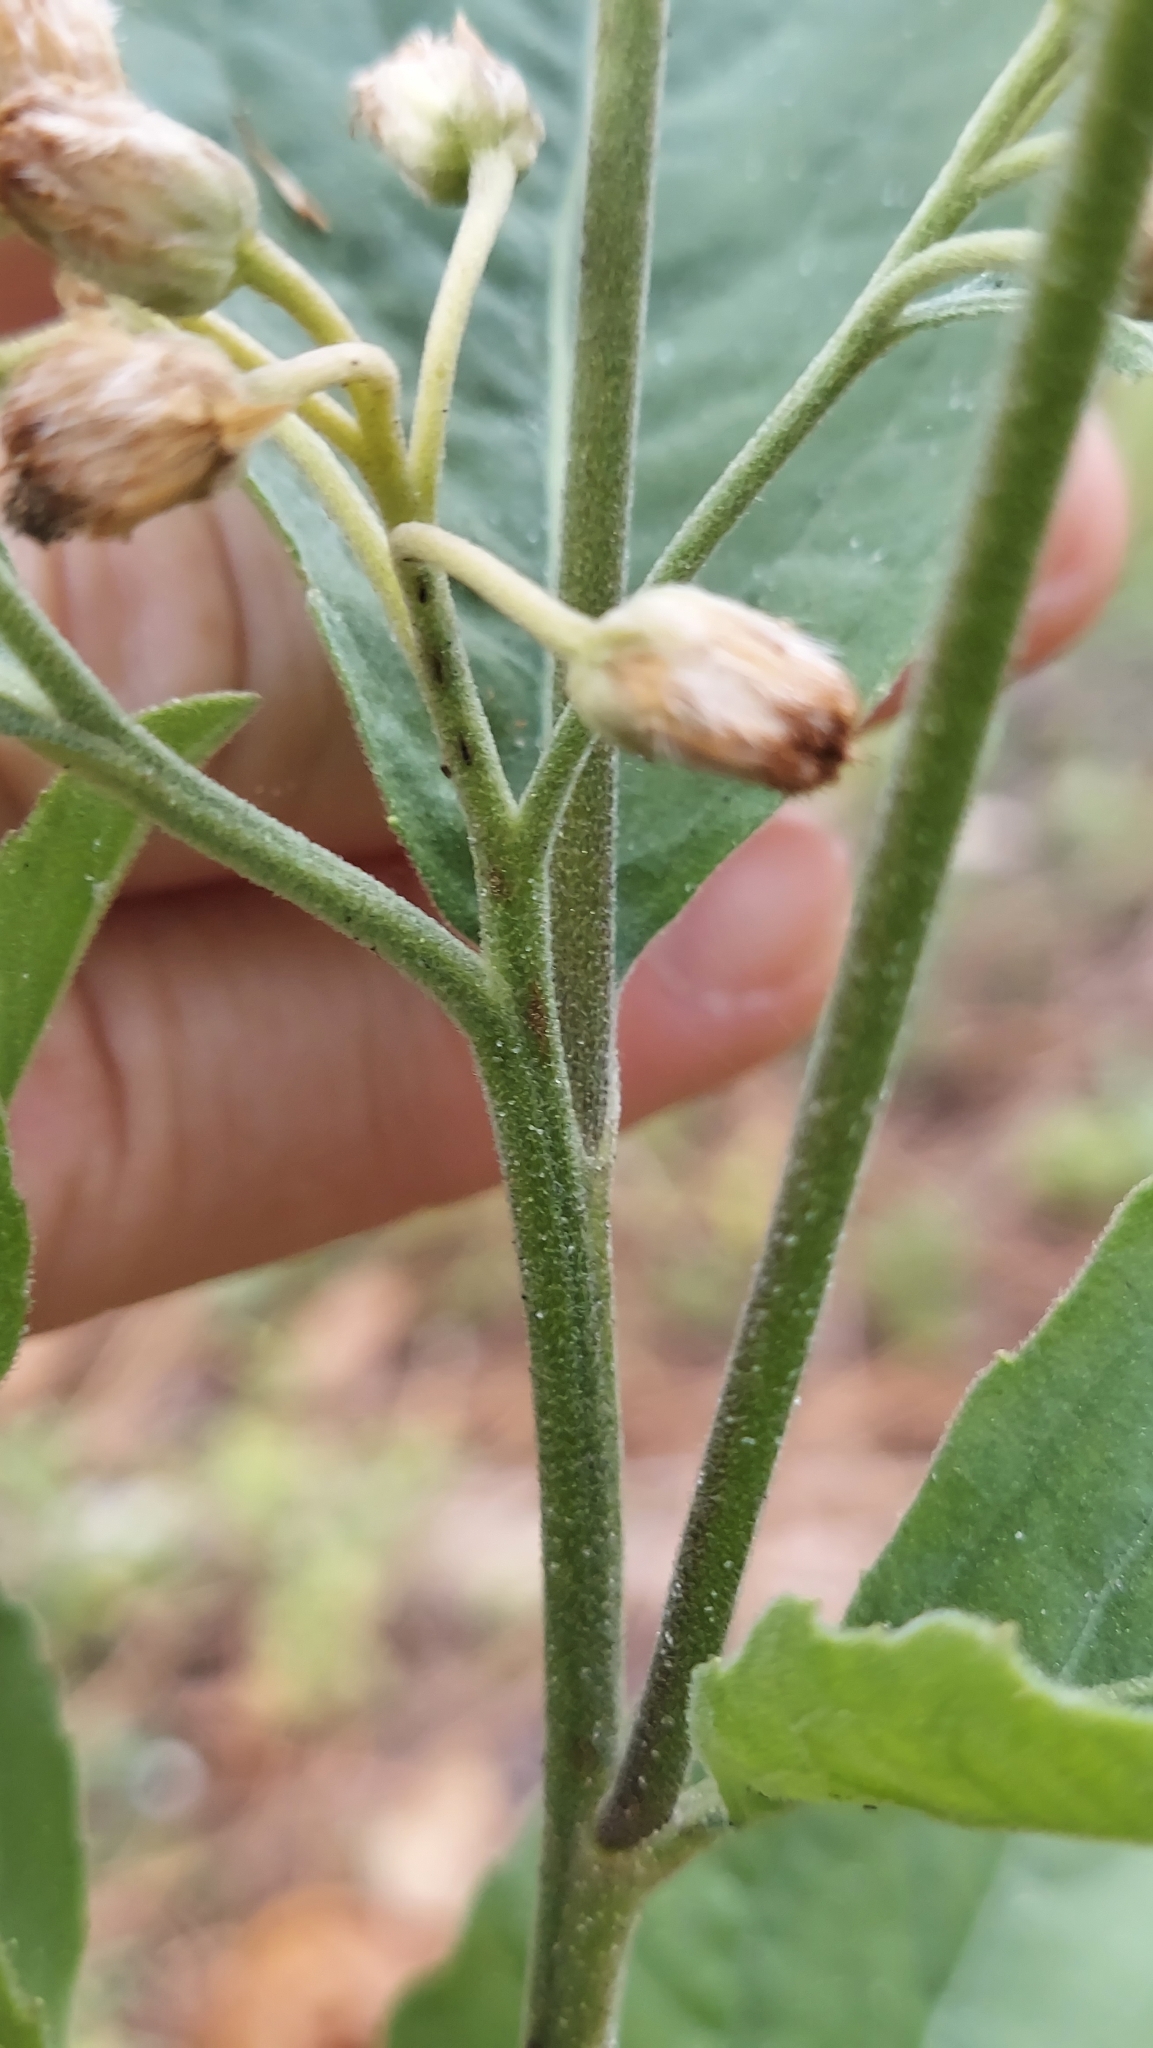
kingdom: Plantae
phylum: Tracheophyta
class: Magnoliopsida
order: Asterales
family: Asteraceae
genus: Pluchea
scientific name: Pluchea odorata
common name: Saltmarsh fleabane
